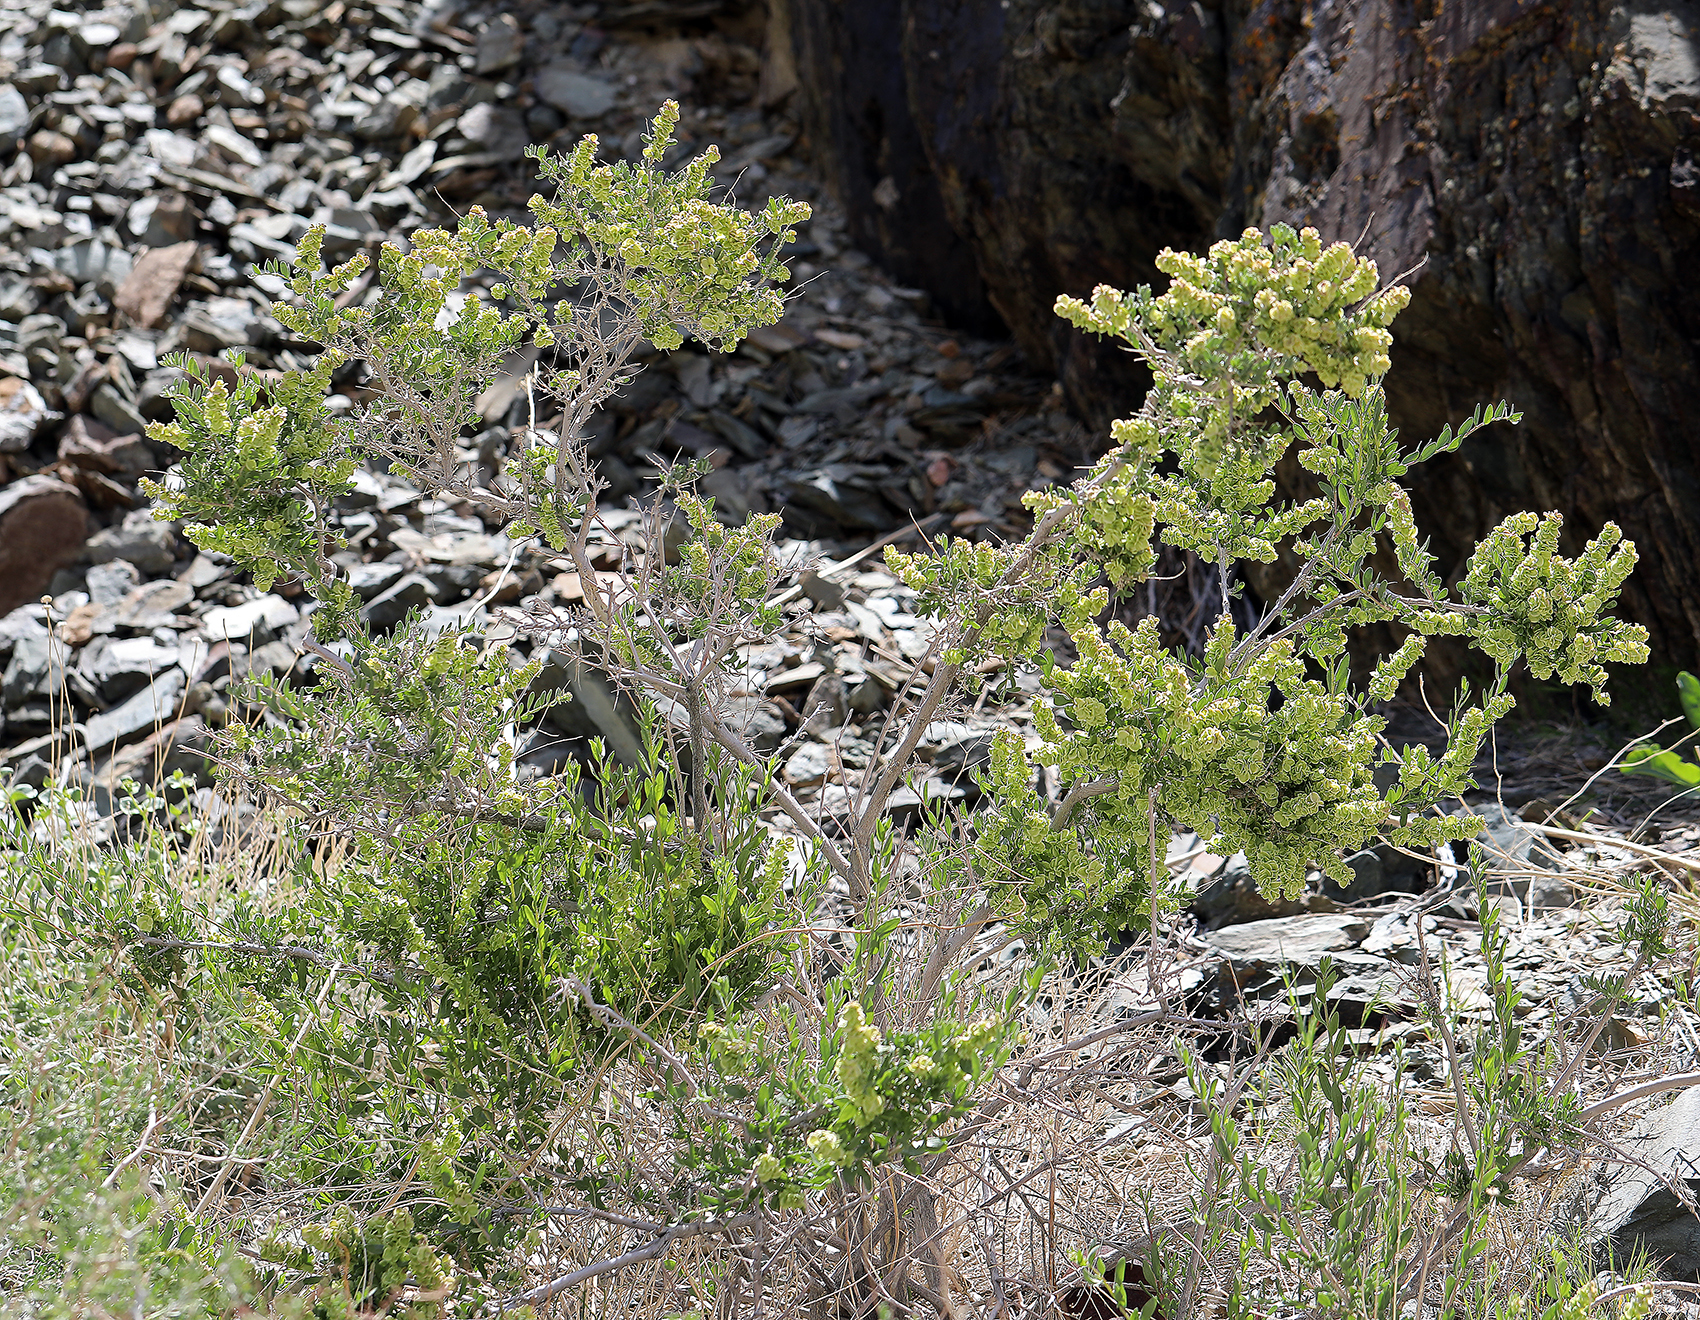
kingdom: Plantae
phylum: Tracheophyta
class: Magnoliopsida
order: Caryophyllales
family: Amaranthaceae
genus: Grayia
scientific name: Grayia spinosa
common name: Spiny hopsage
